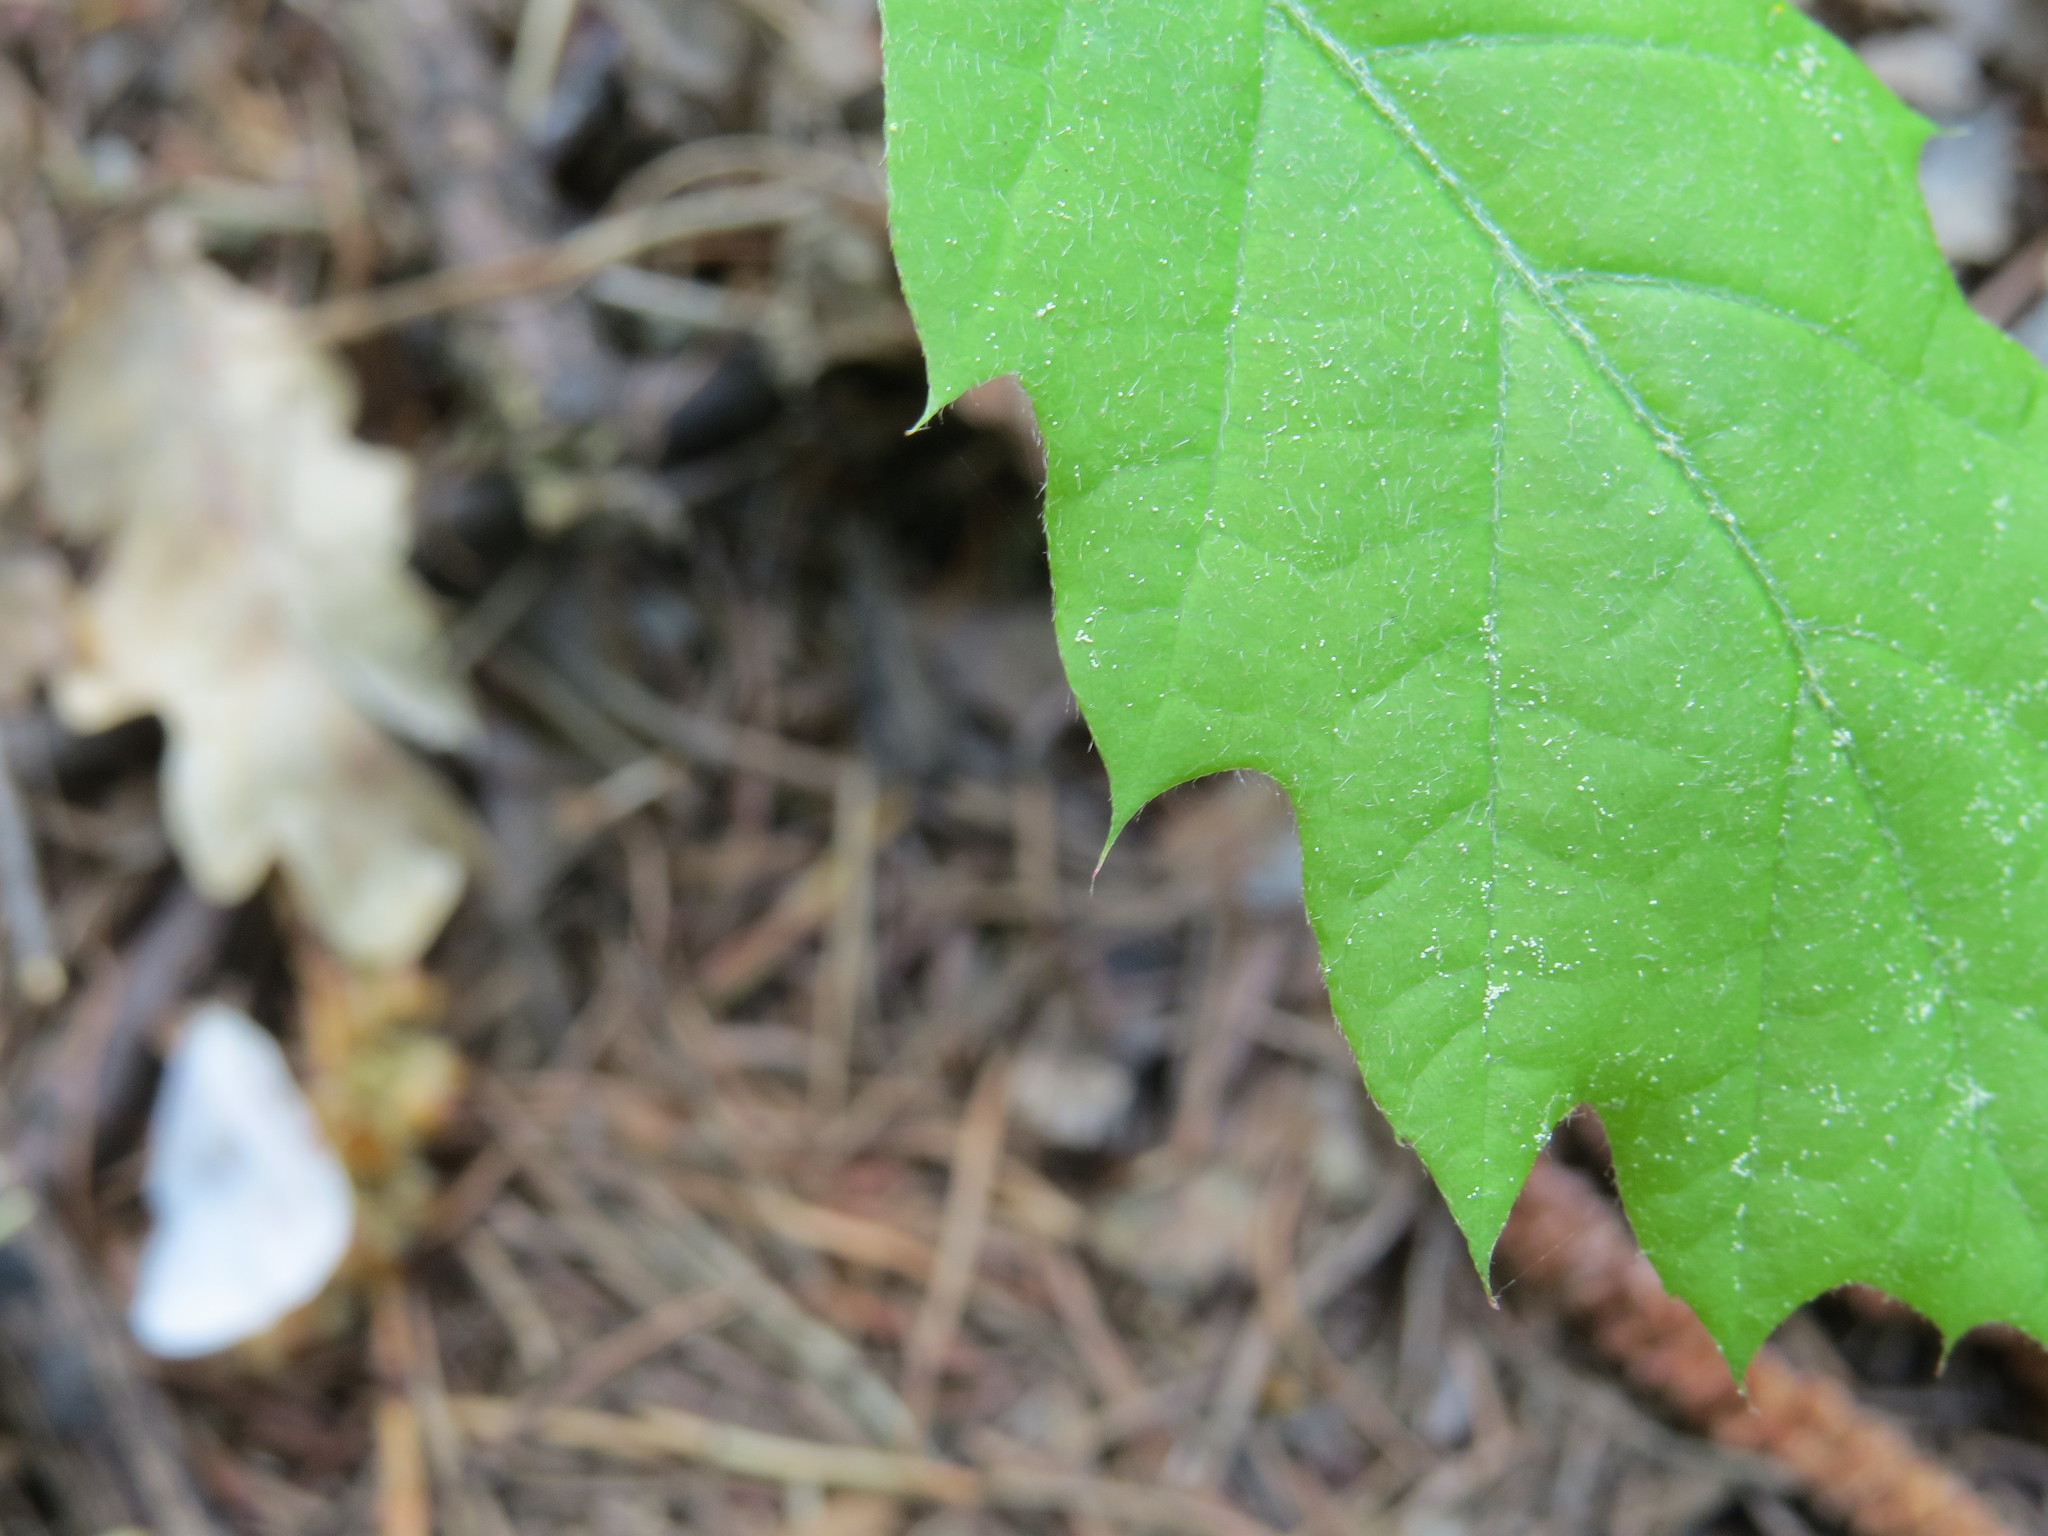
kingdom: Plantae
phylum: Tracheophyta
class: Magnoliopsida
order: Fagales
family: Fagaceae
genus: Quercus
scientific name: Quercus rubra
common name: Red oak
